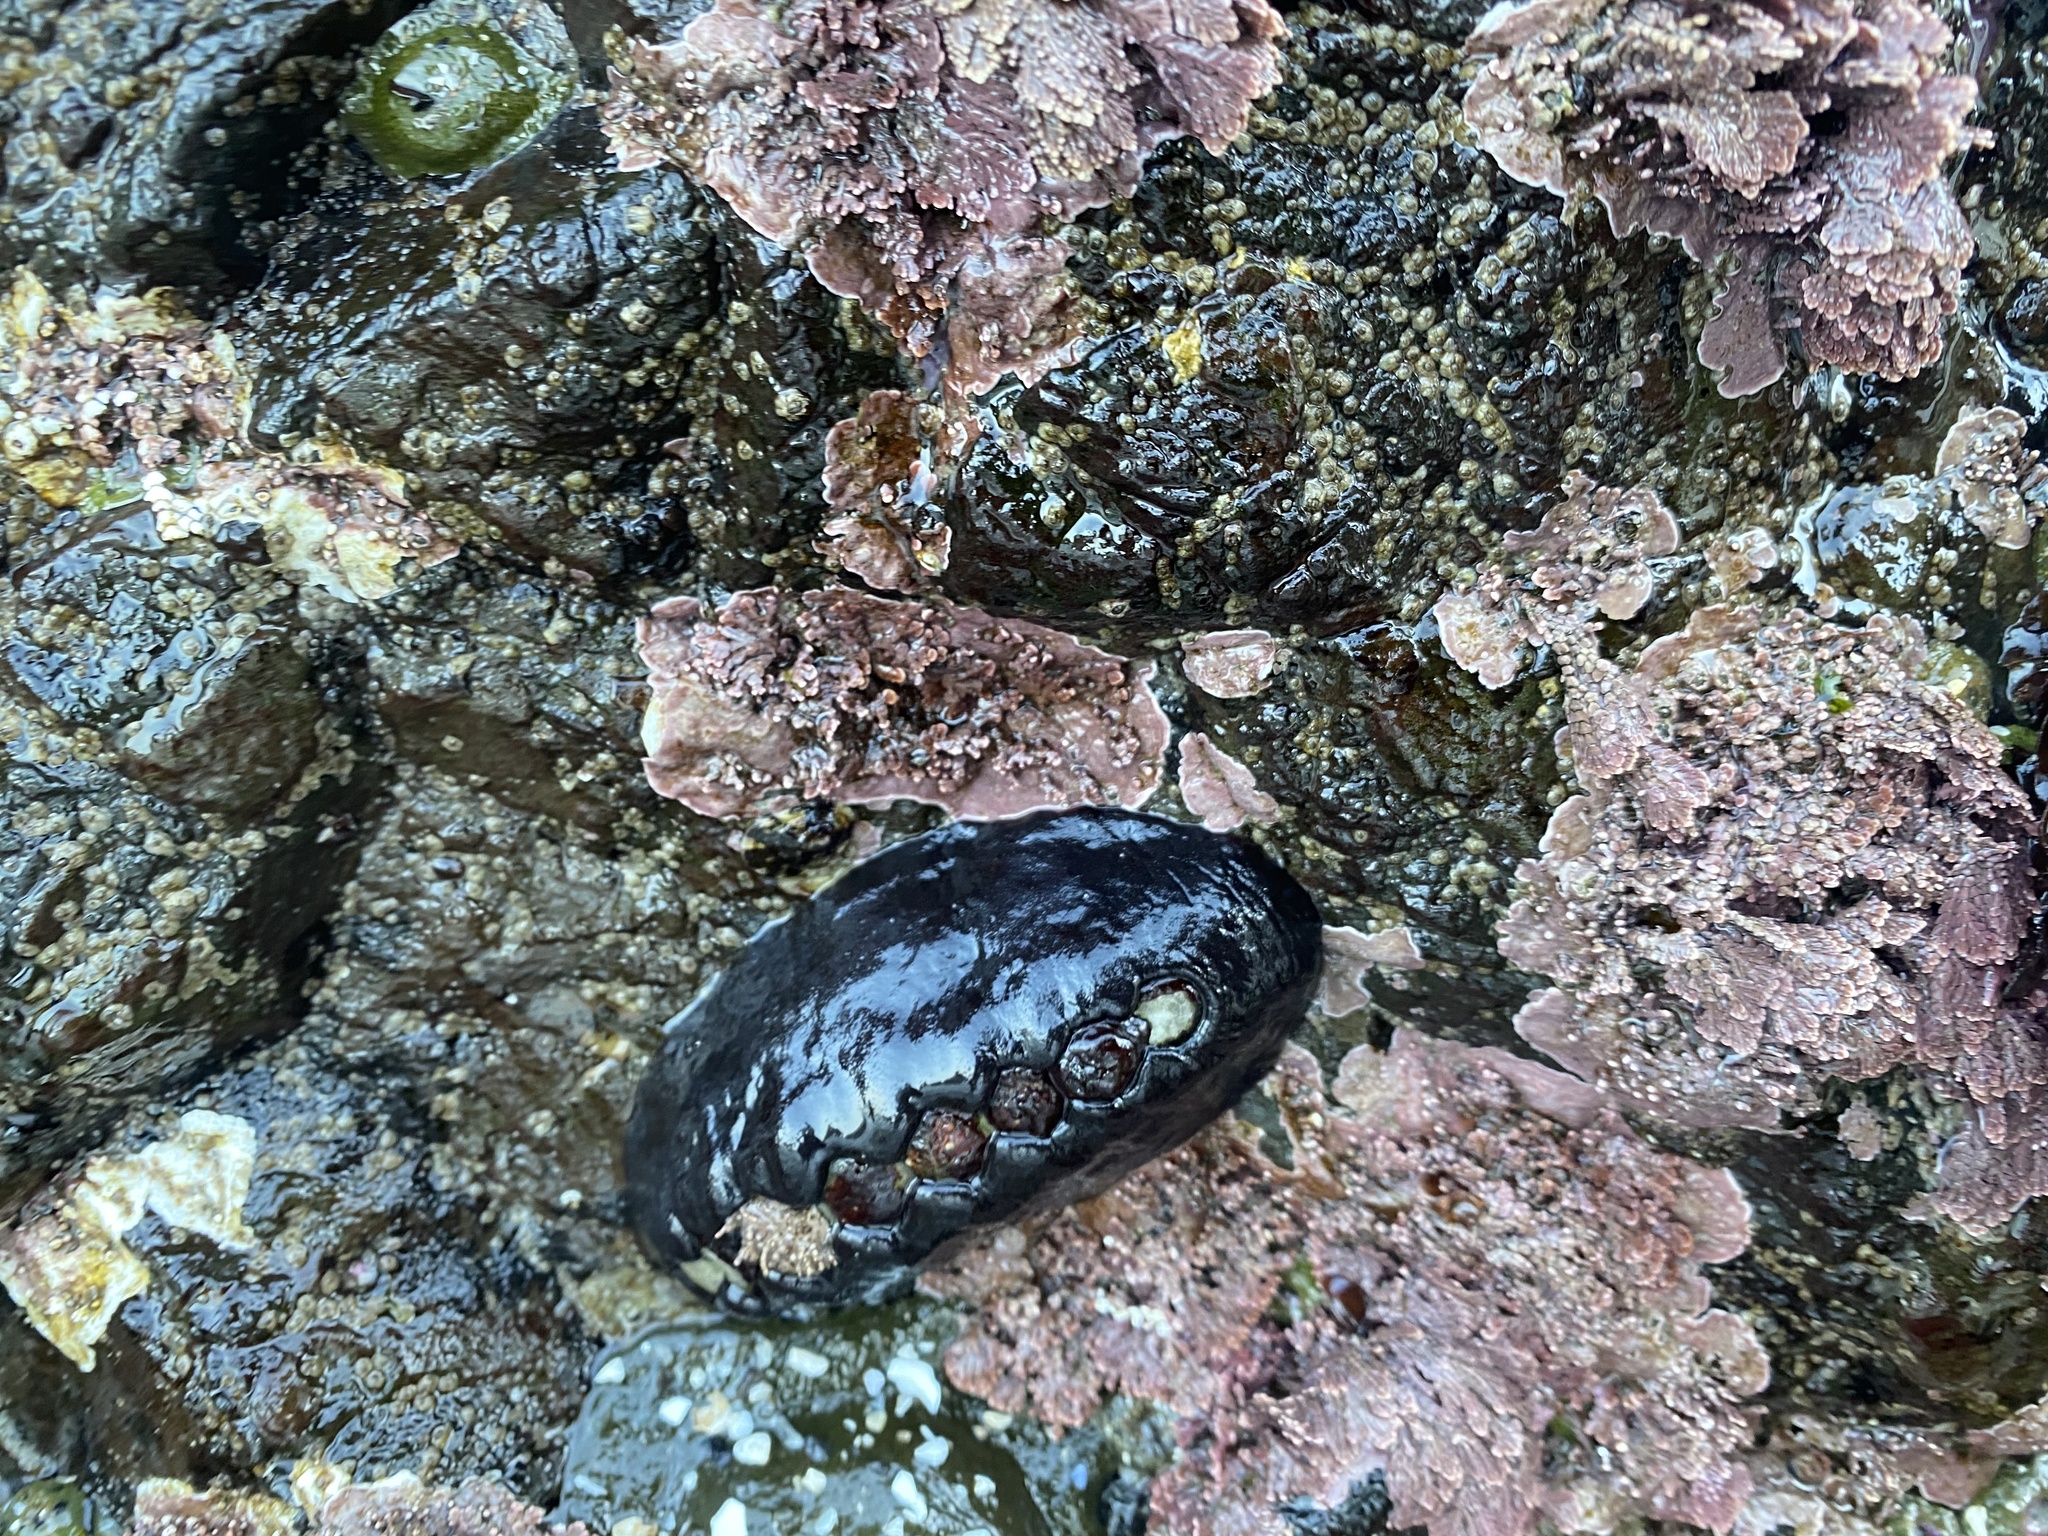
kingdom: Animalia
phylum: Mollusca
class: Polyplacophora
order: Chitonida
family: Mopaliidae
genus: Katharina
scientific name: Katharina tunicata
